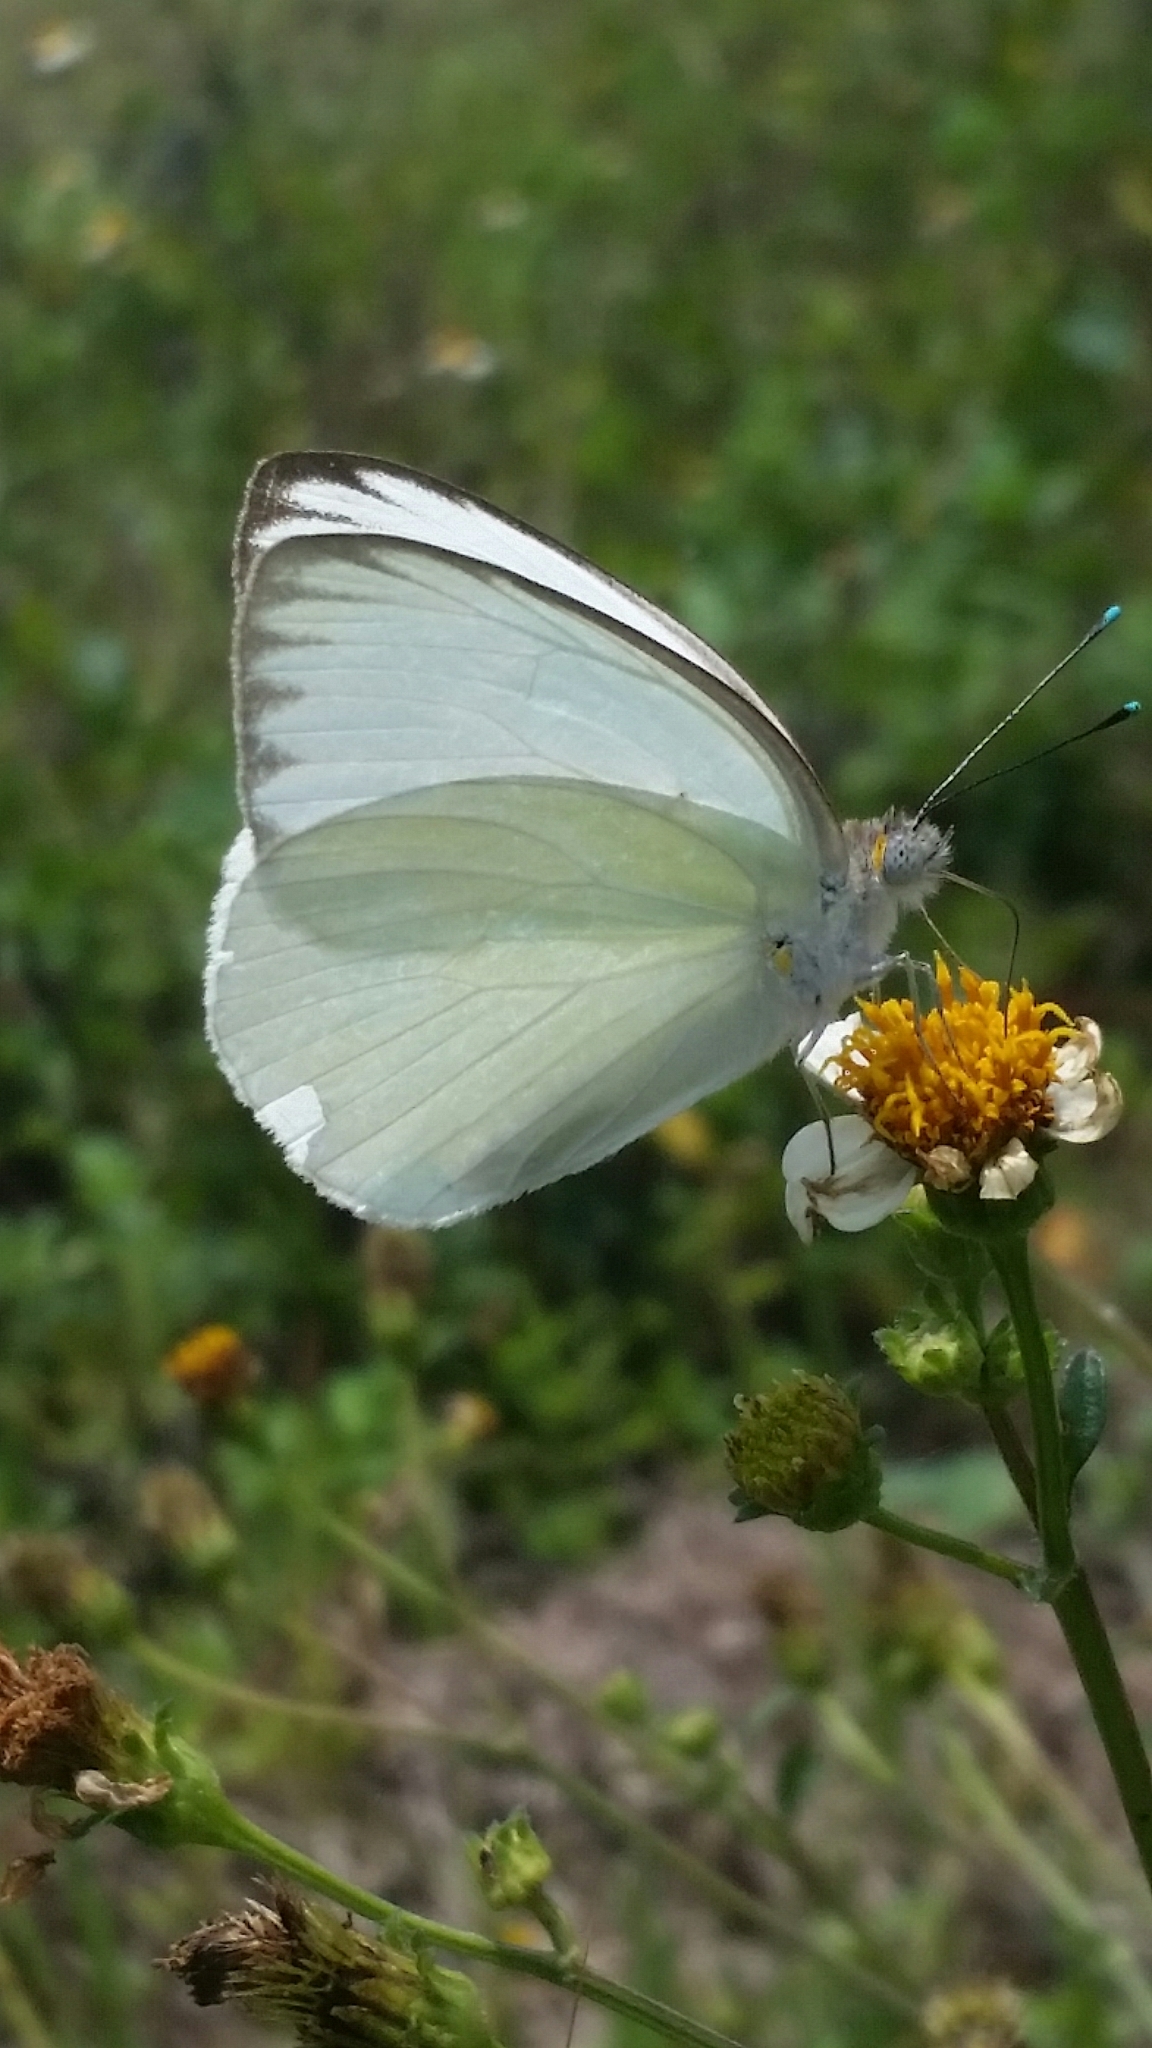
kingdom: Animalia
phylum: Arthropoda
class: Insecta
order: Lepidoptera
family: Pieridae
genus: Ascia
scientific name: Ascia monuste
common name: Great southern white
